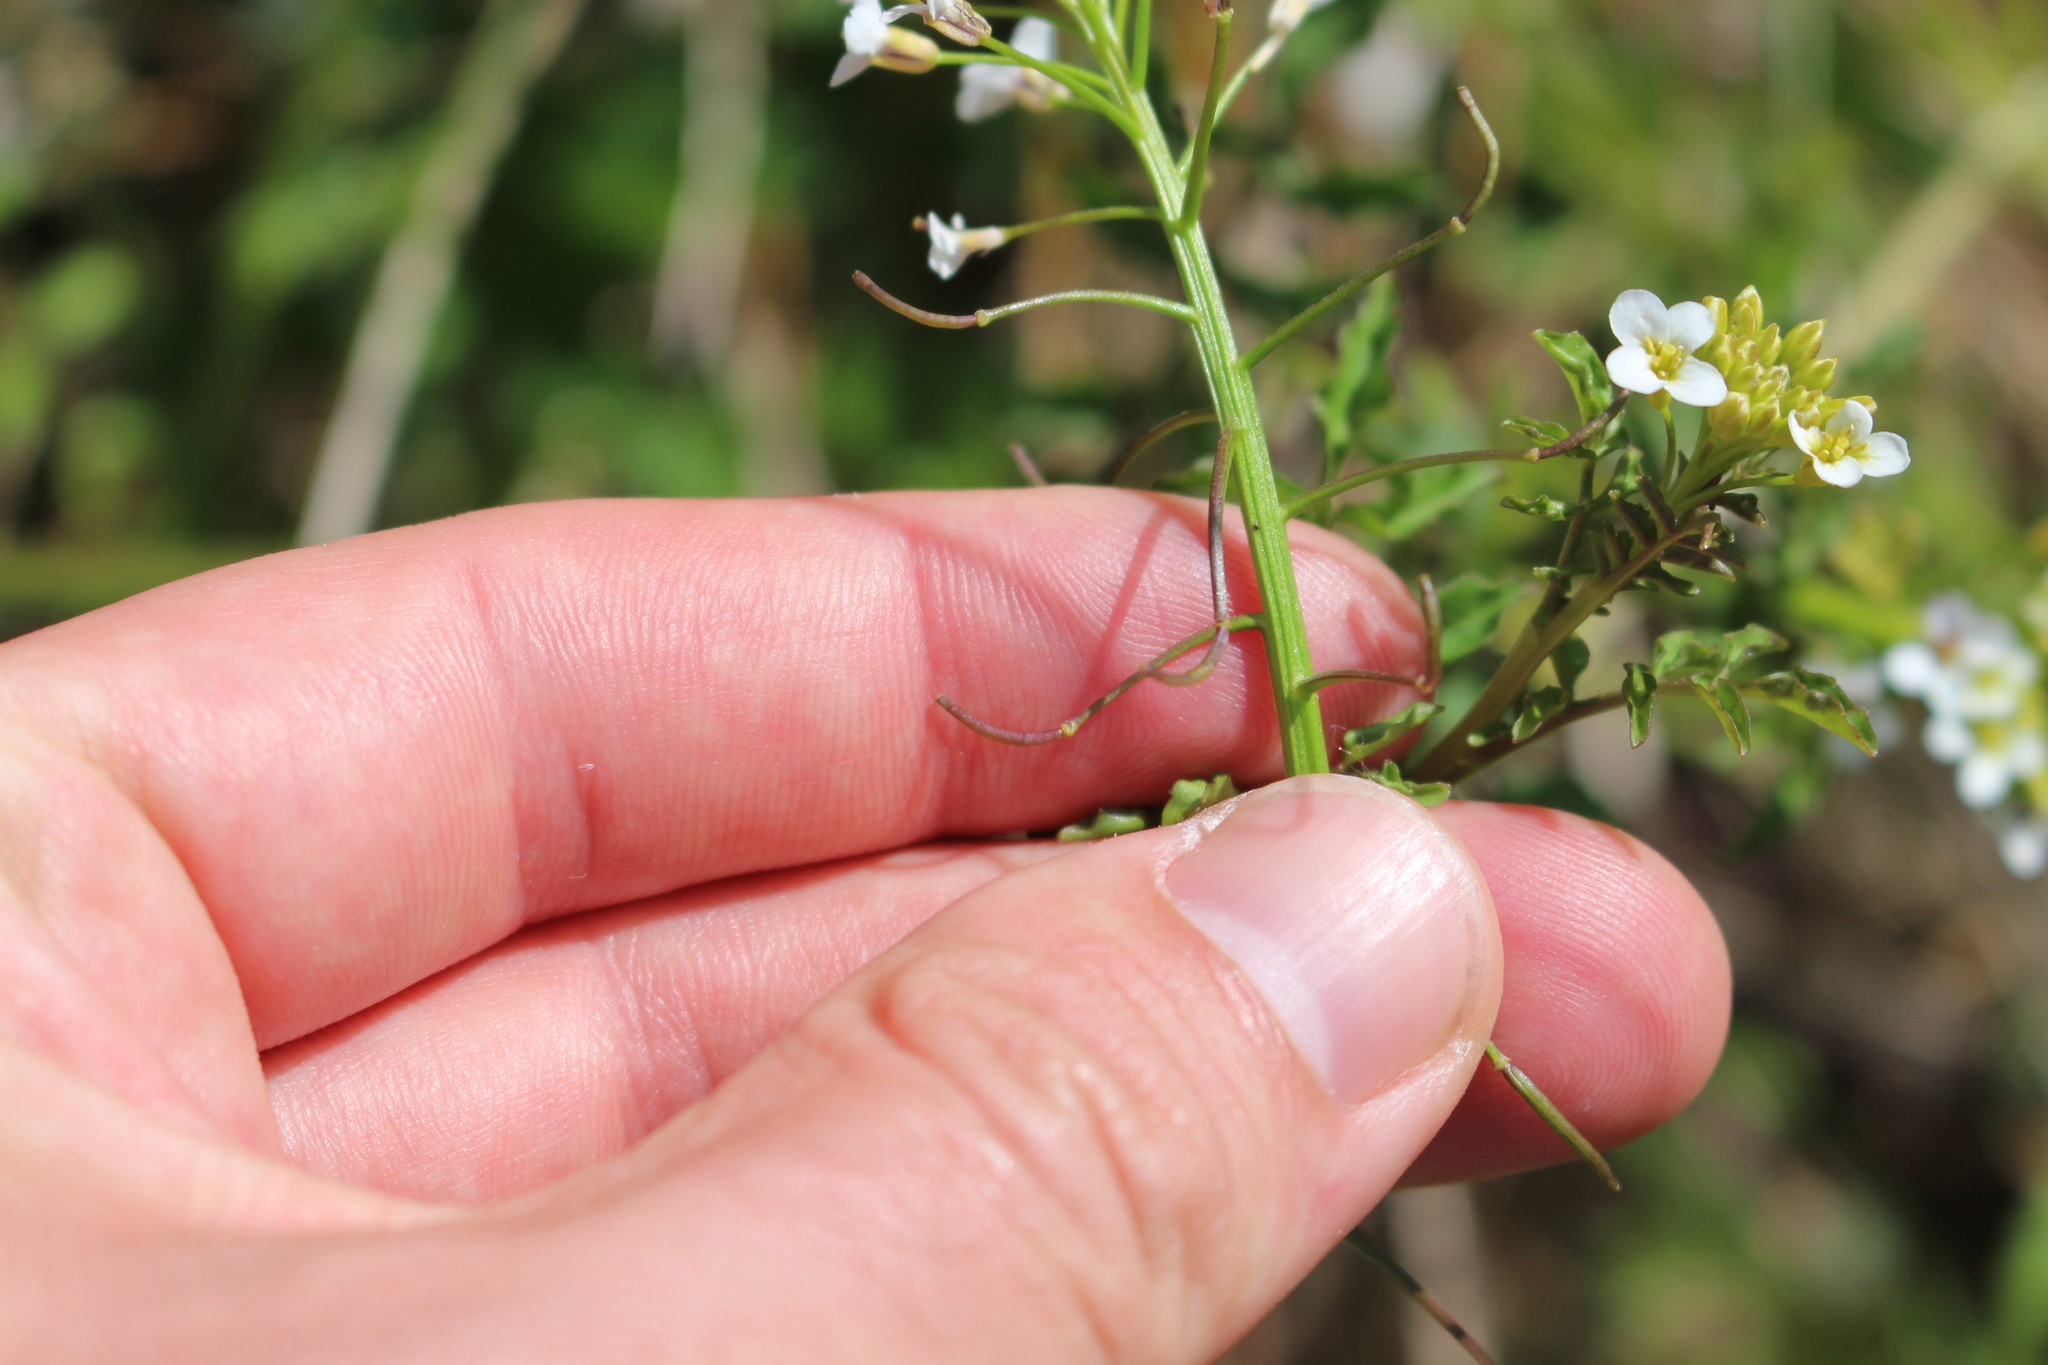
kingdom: Plantae
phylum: Tracheophyta
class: Magnoliopsida
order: Brassicales
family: Brassicaceae
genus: Nasturtium
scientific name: Nasturtium microphyllum
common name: Onerow yellowcress
